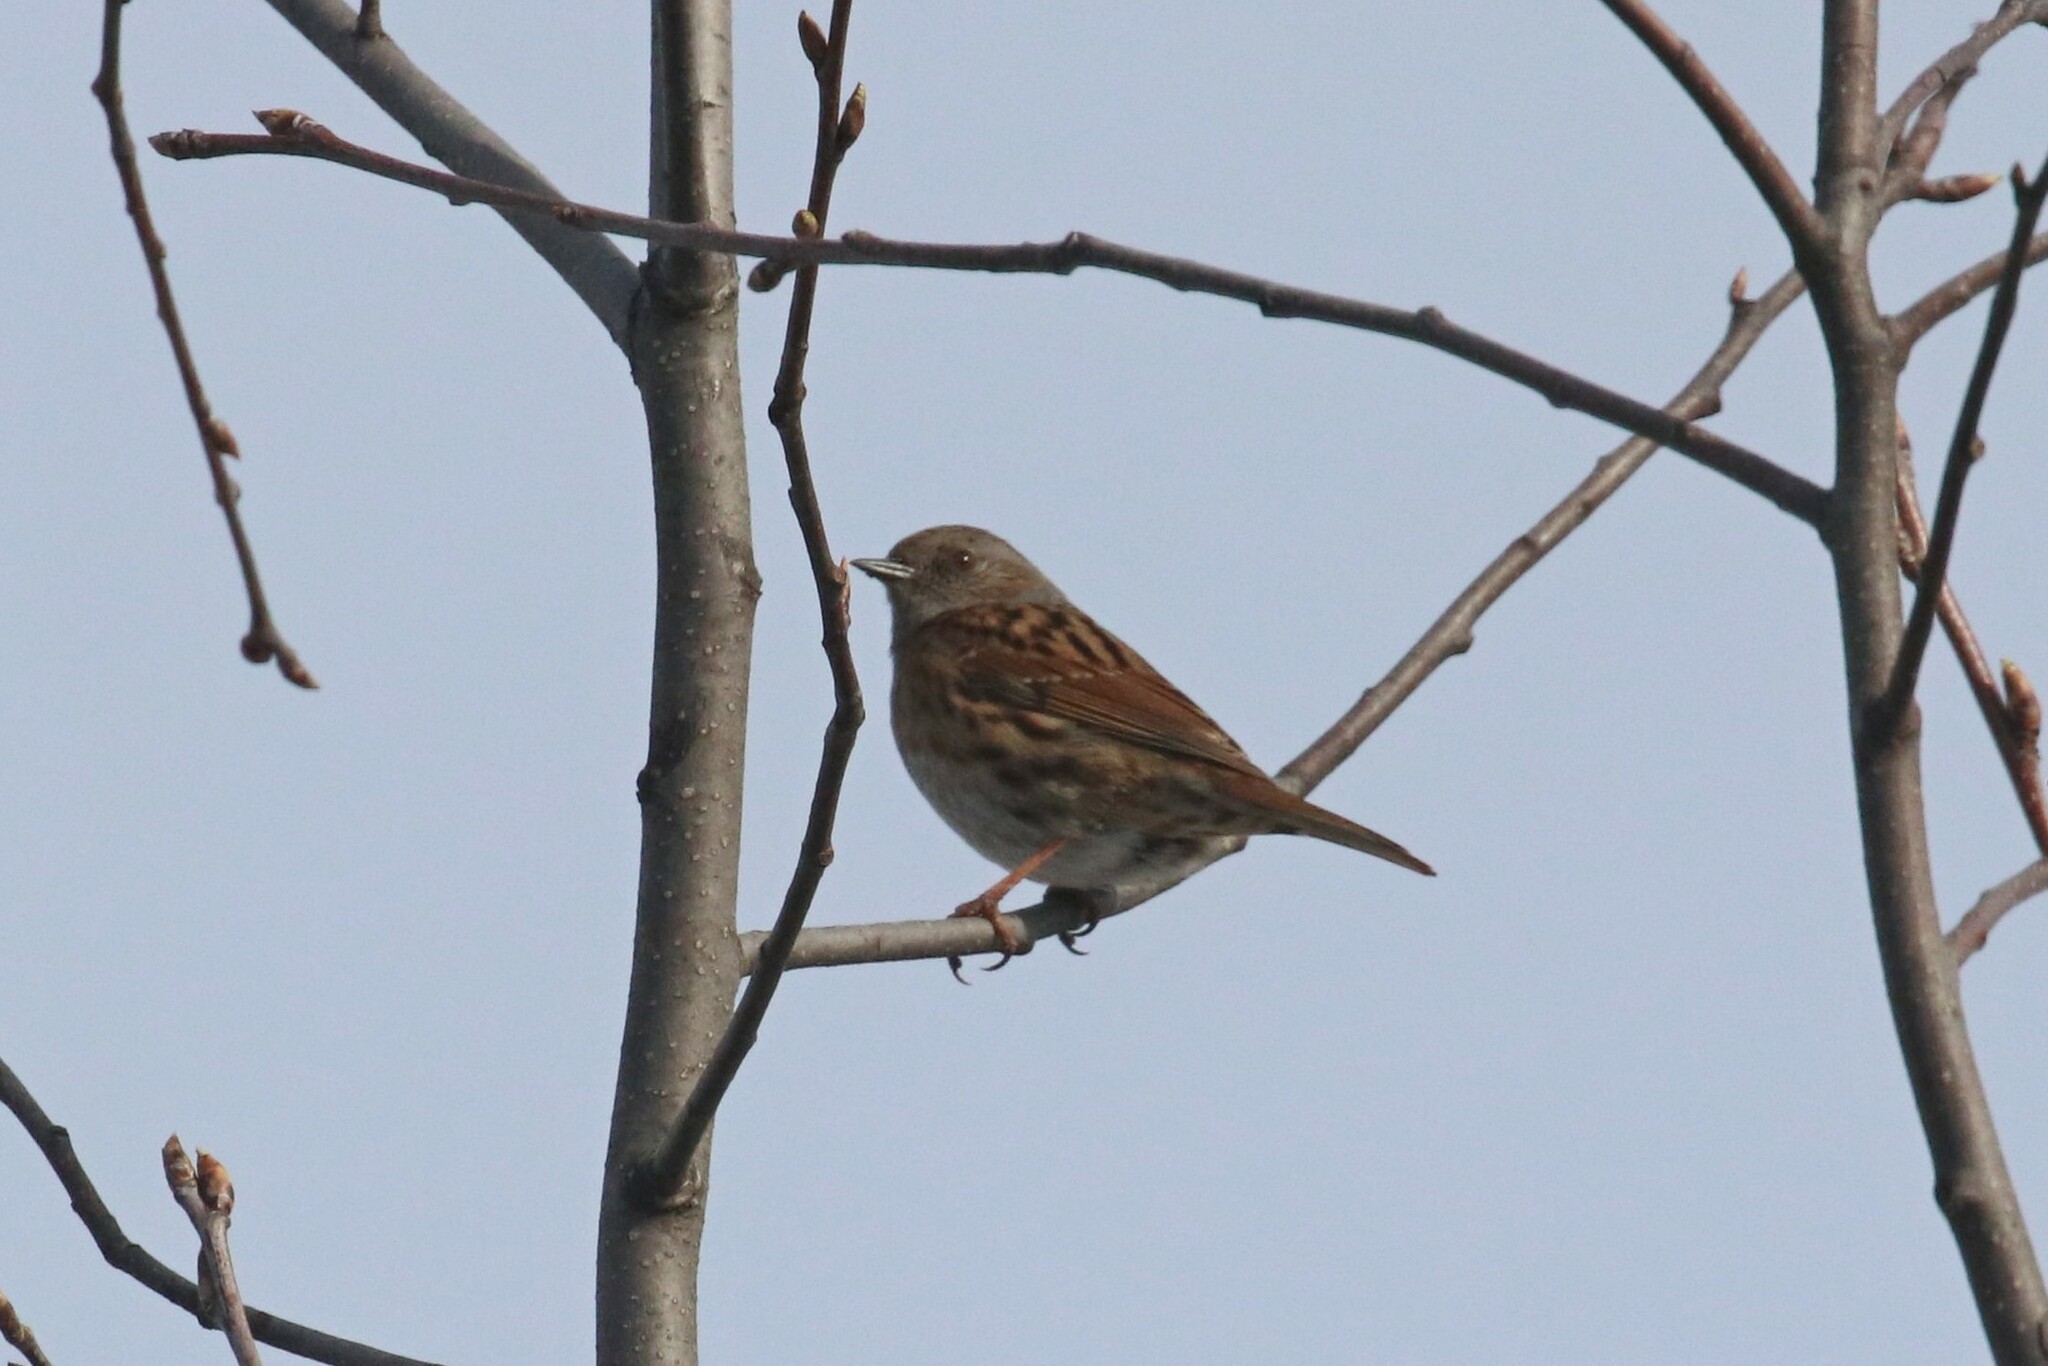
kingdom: Animalia
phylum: Chordata
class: Aves
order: Passeriformes
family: Prunellidae
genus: Prunella
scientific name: Prunella modularis
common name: Dunnock
